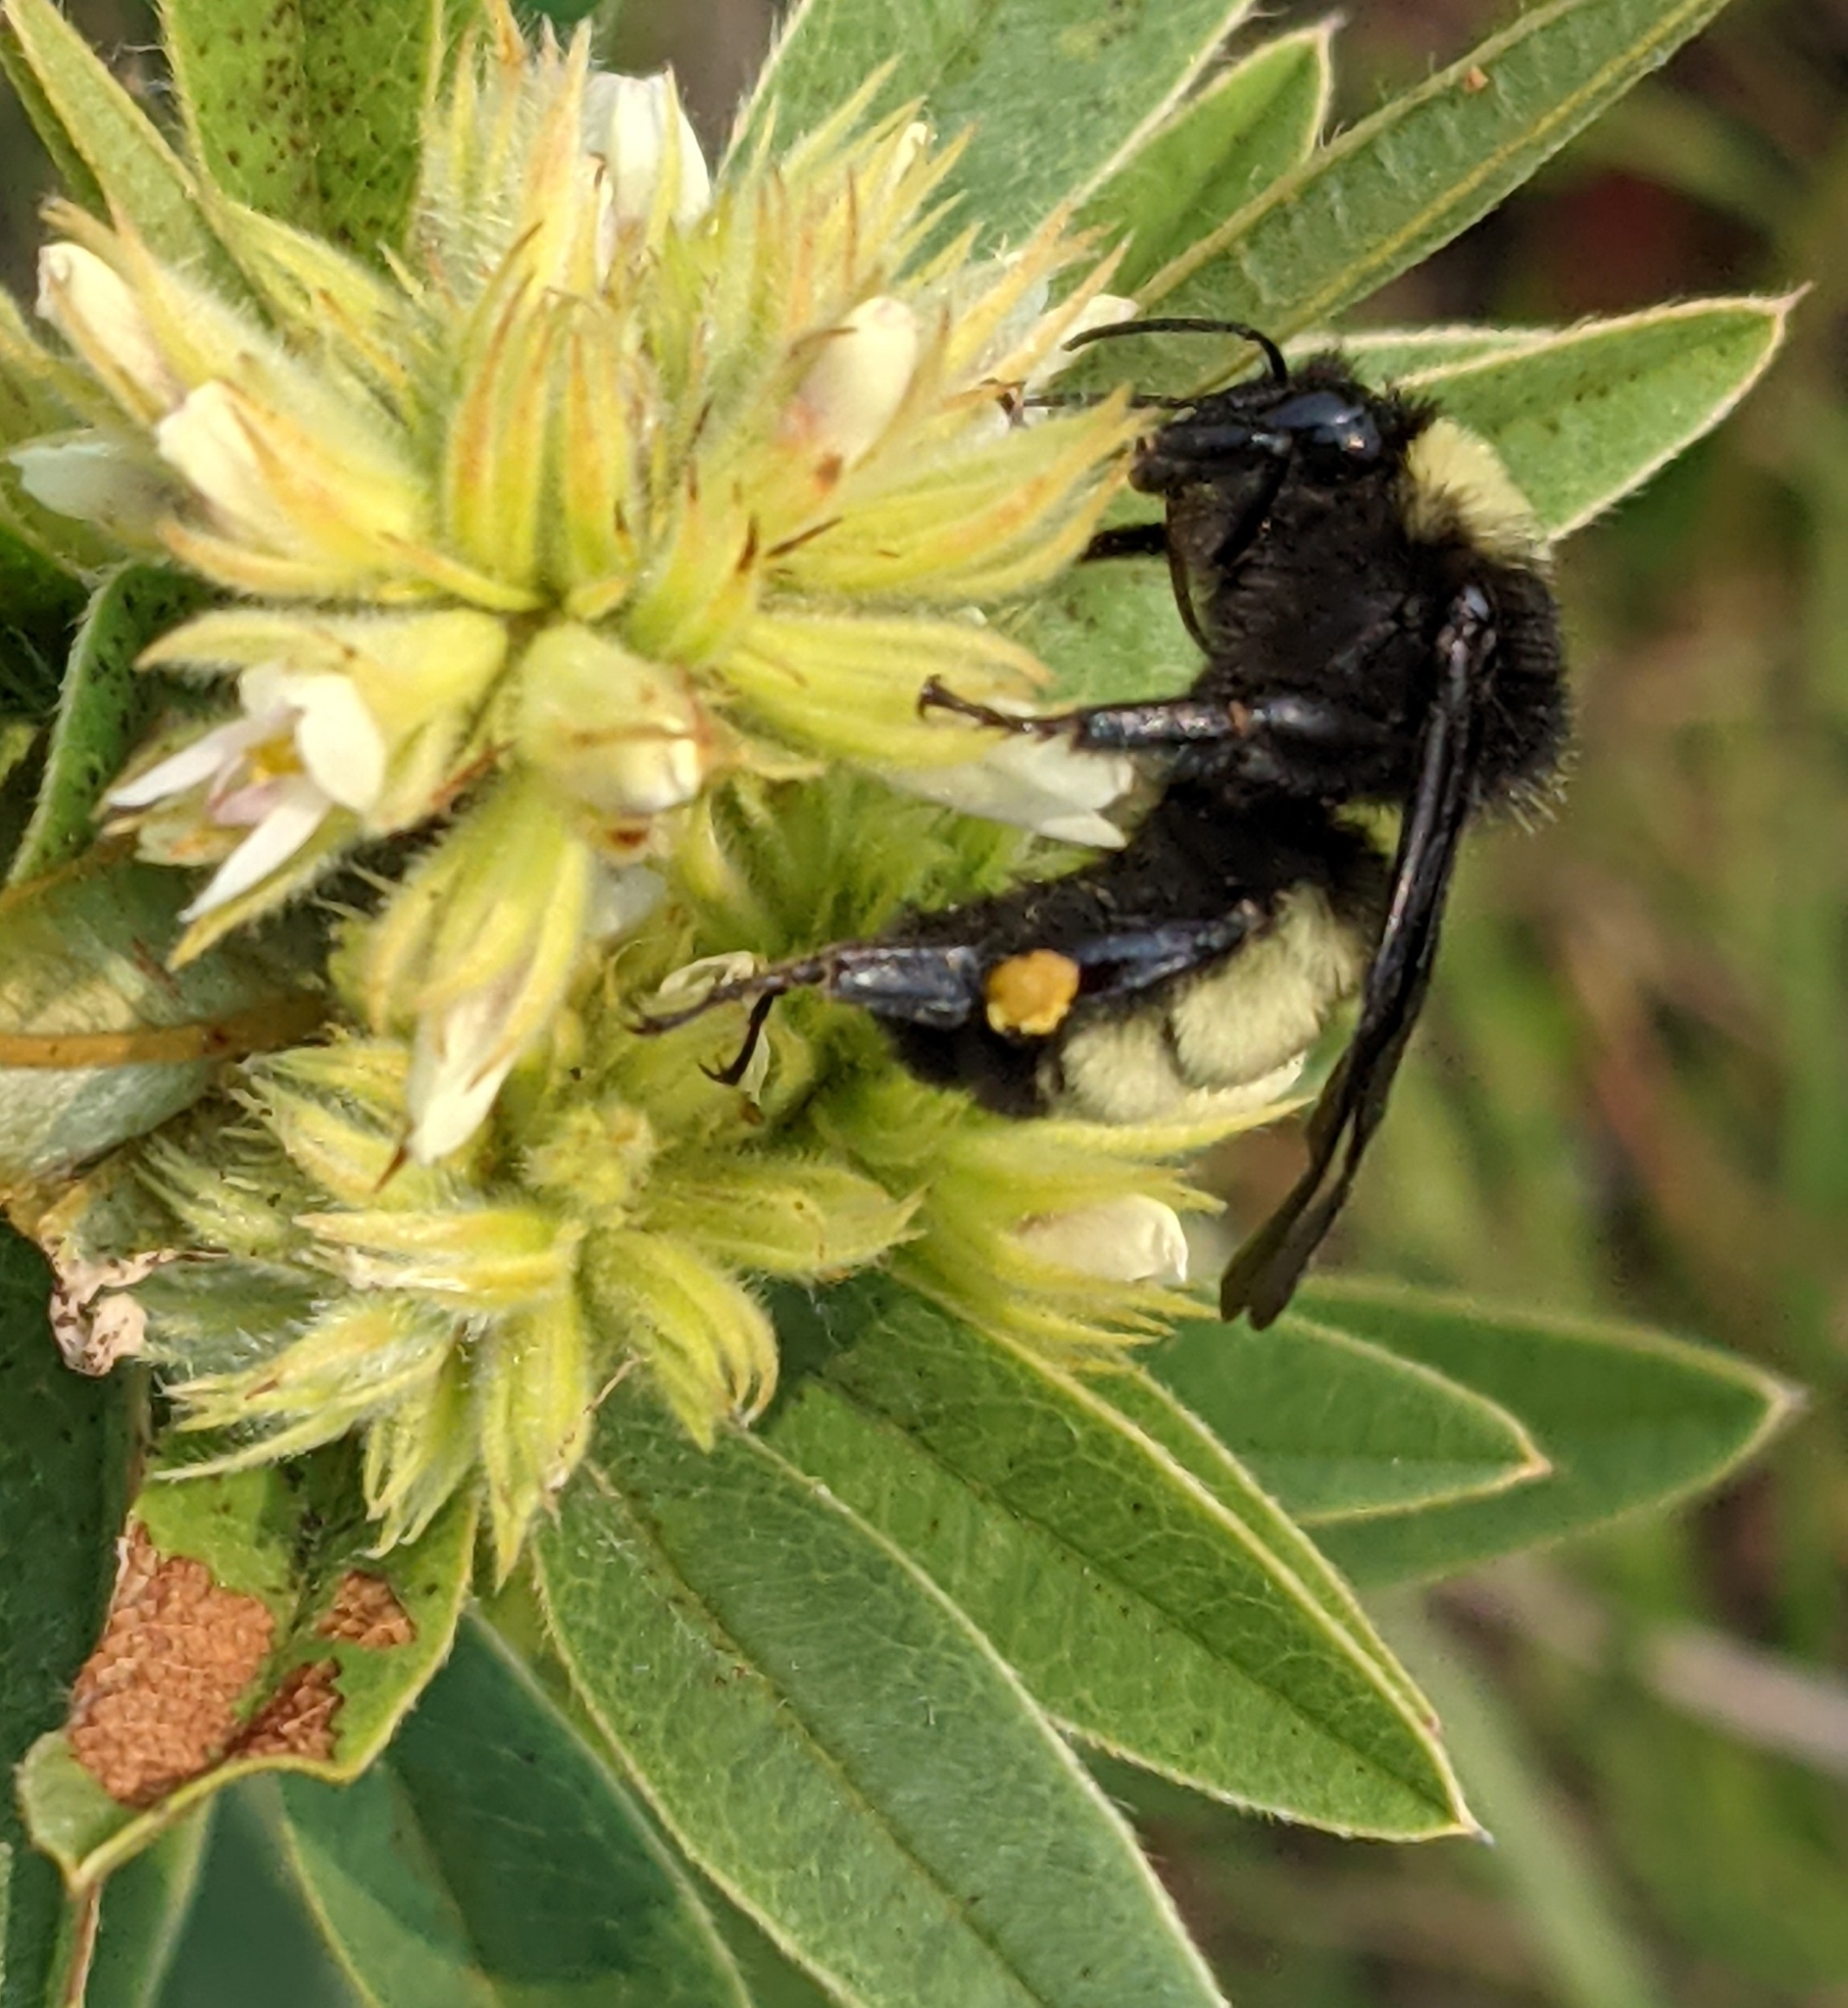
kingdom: Animalia
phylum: Arthropoda
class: Insecta
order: Hymenoptera
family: Apidae
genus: Bombus
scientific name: Bombus pensylvanicus
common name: Bumble bee
